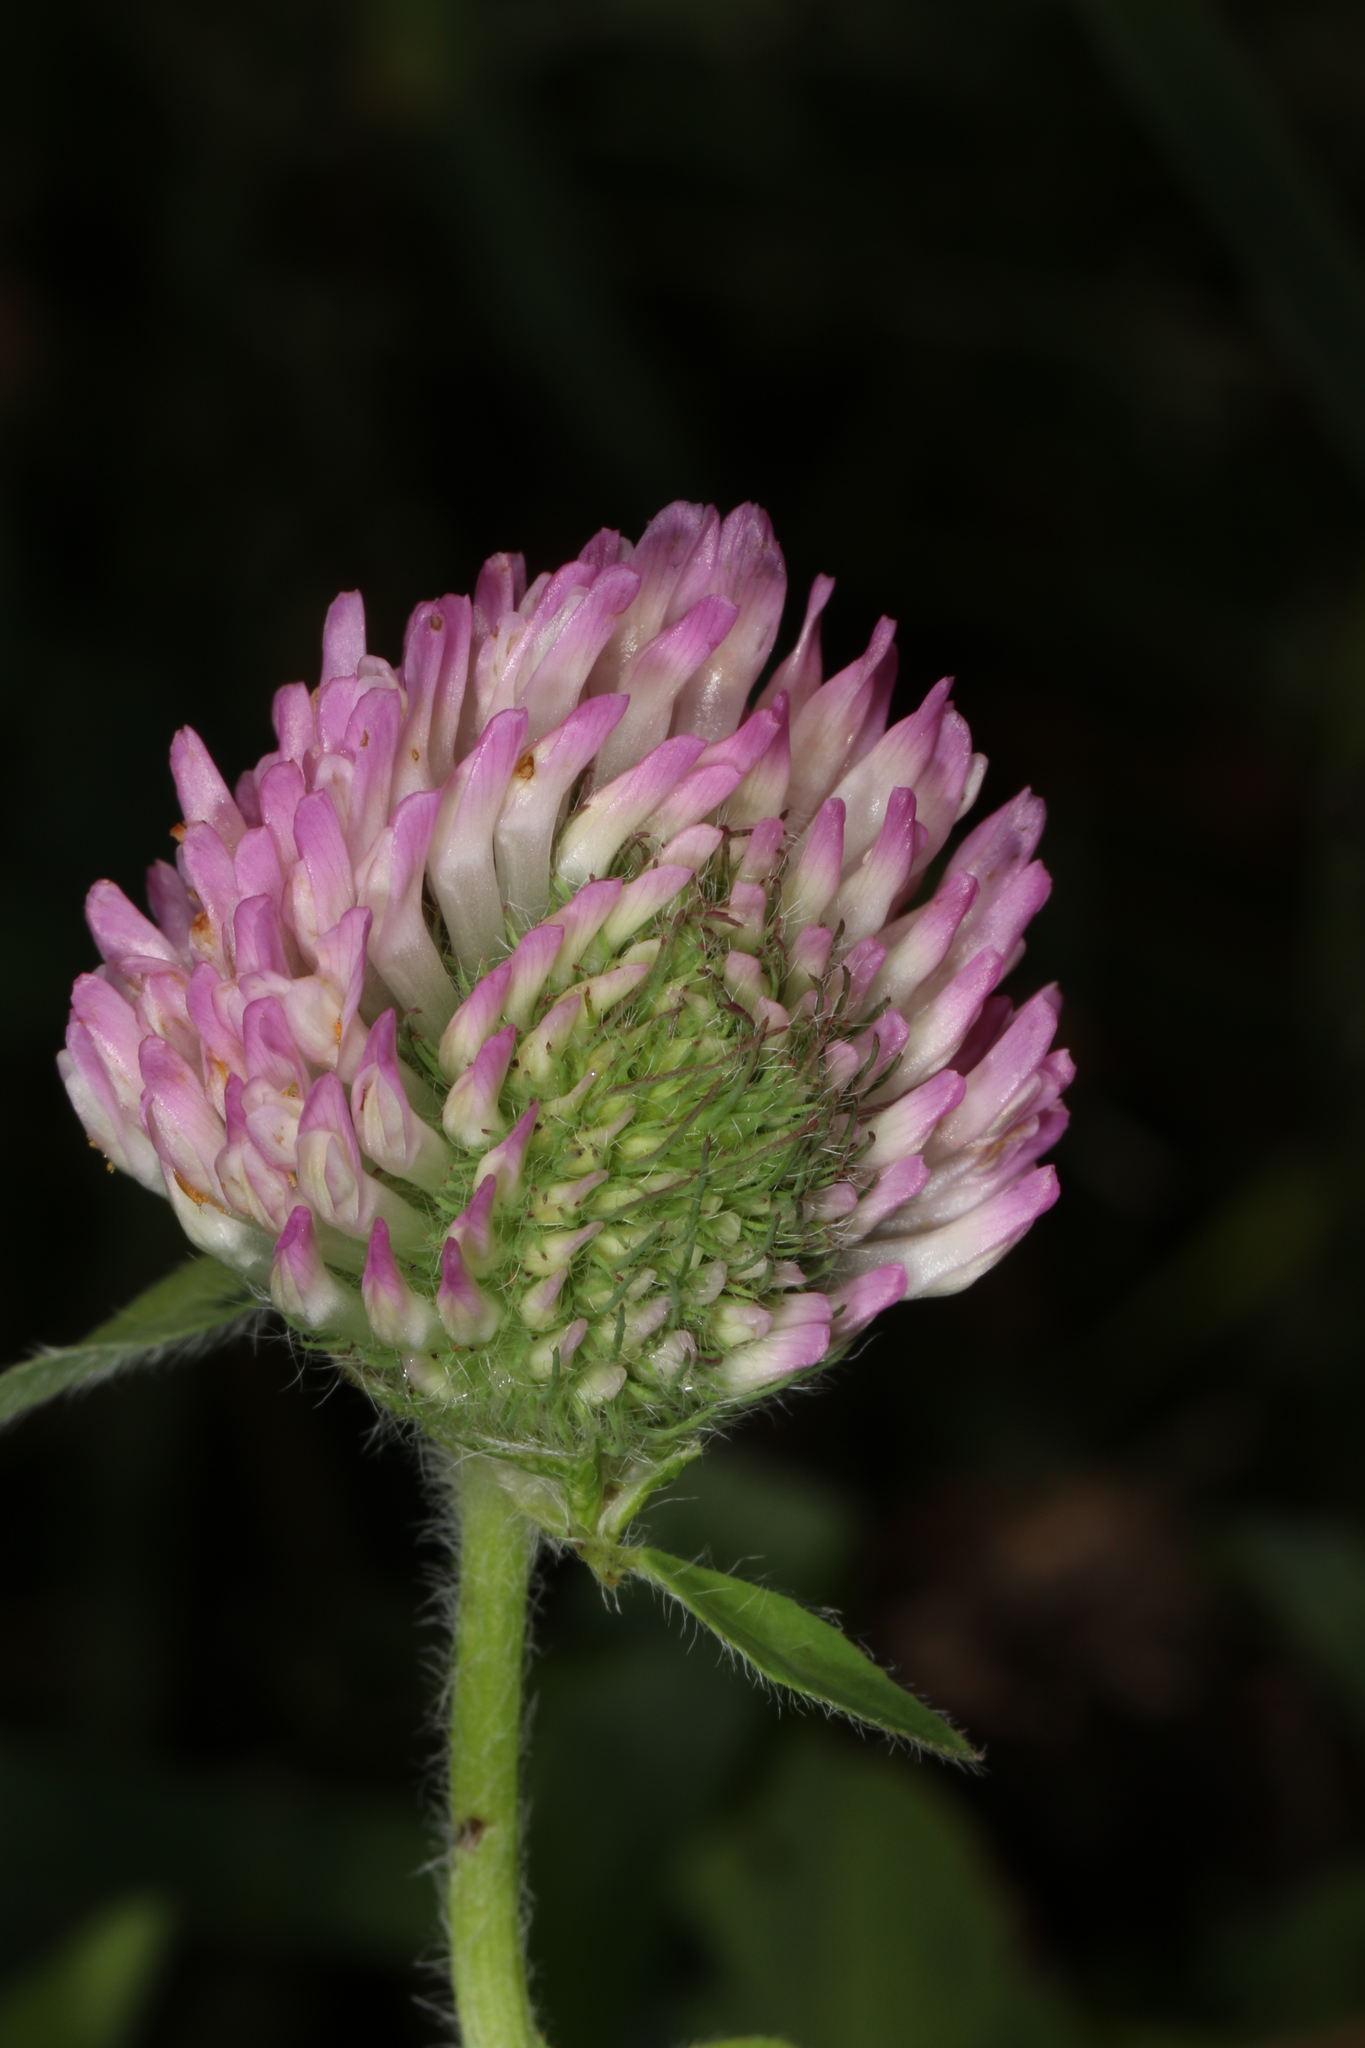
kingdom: Plantae
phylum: Tracheophyta
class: Magnoliopsida
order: Fabales
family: Fabaceae
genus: Trifolium
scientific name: Trifolium pratense
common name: Red clover
